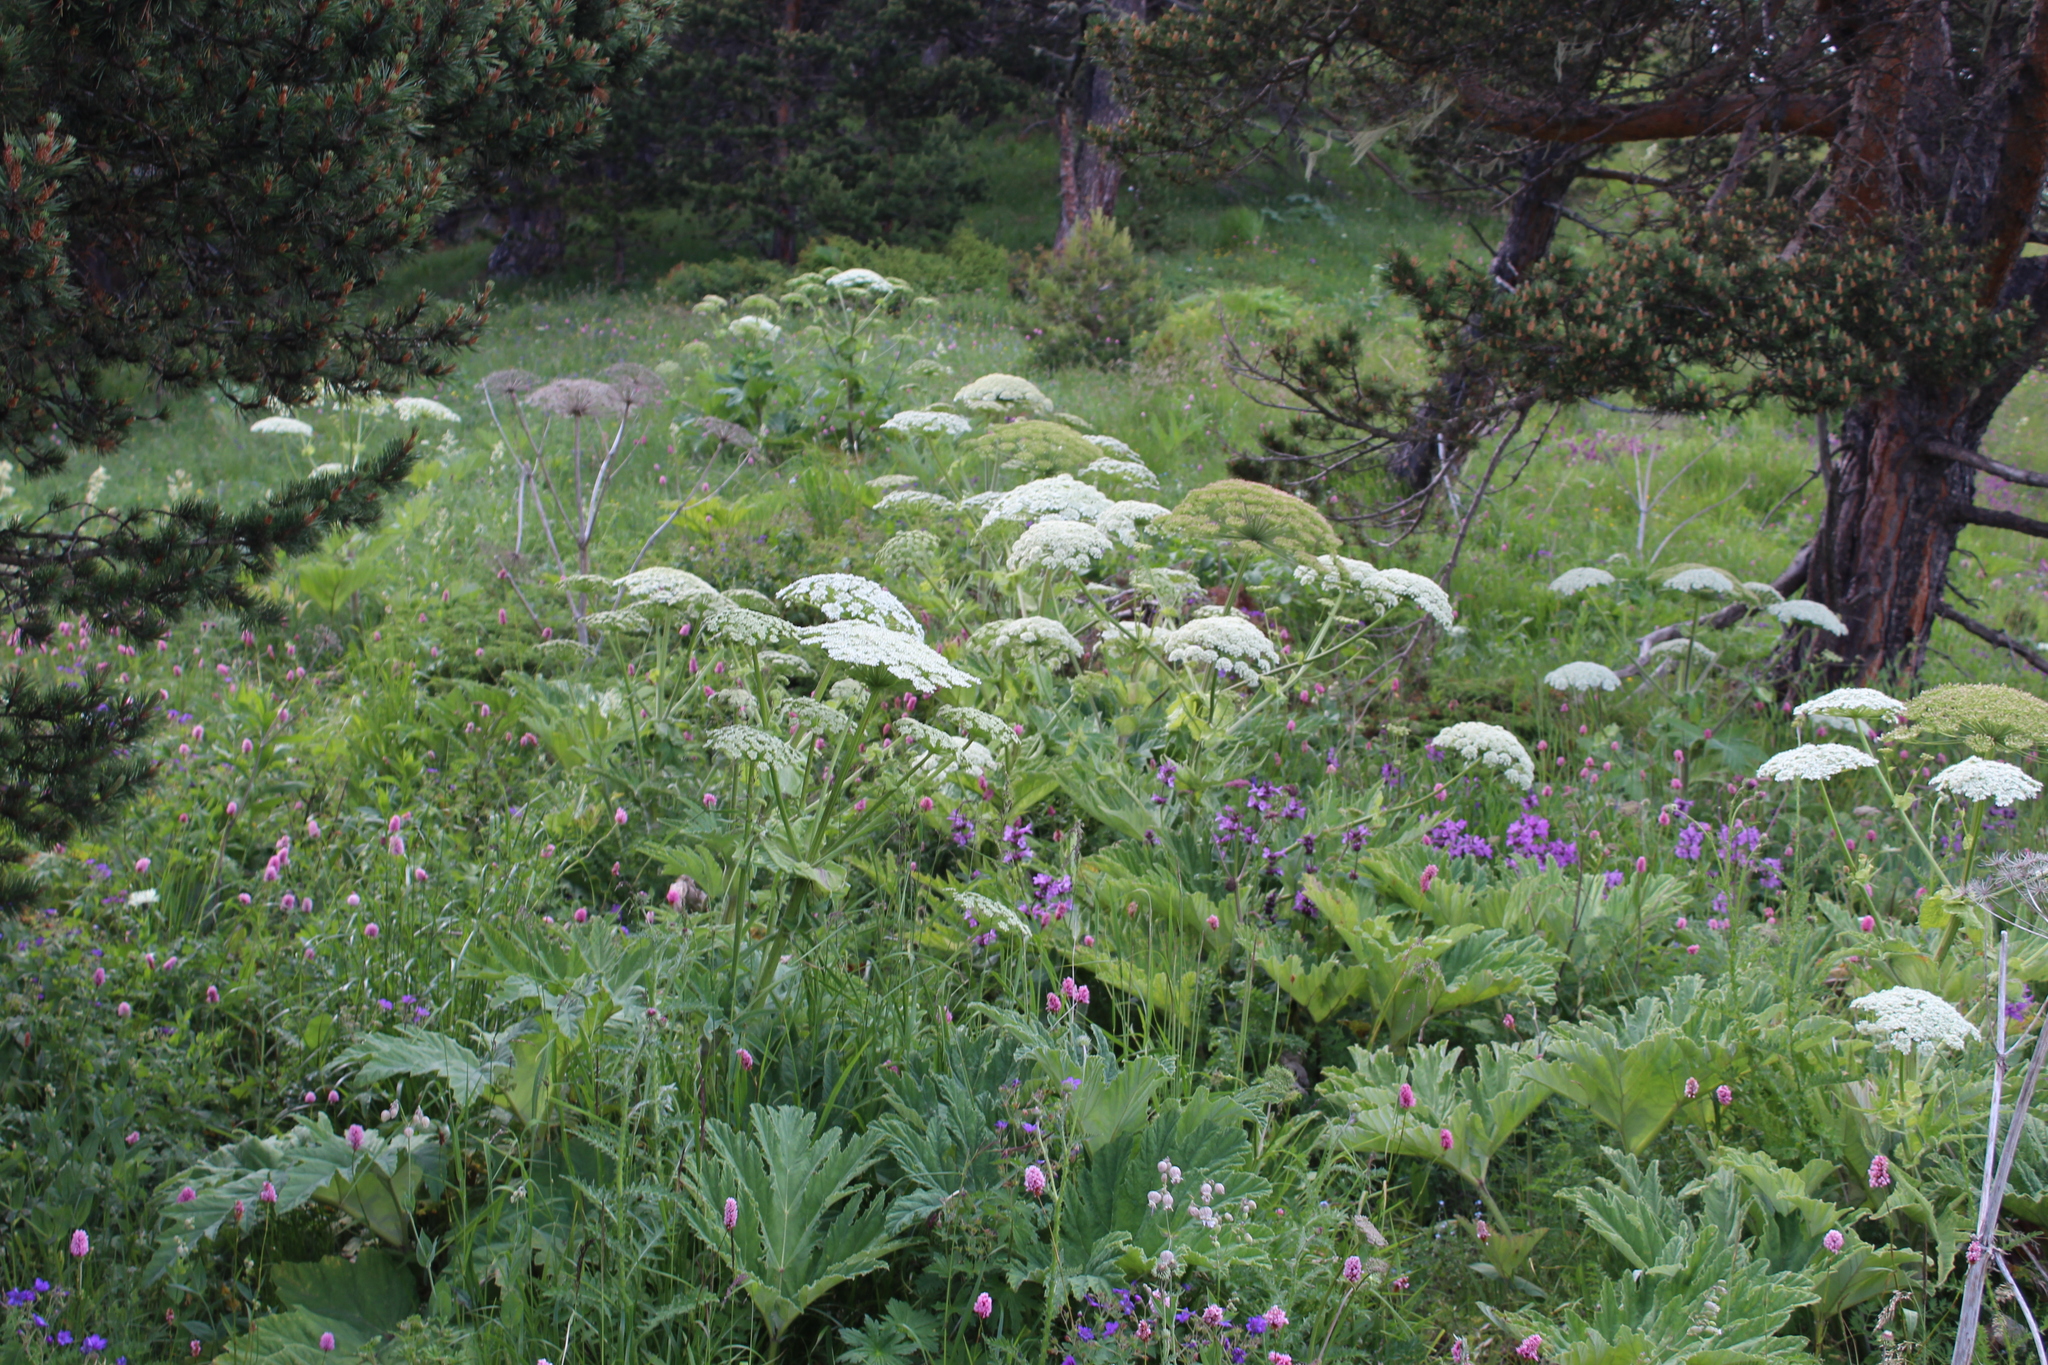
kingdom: Plantae
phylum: Tracheophyta
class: Magnoliopsida
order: Apiales
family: Apiaceae
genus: Heracleum
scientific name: Heracleum leskovii
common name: Leskov's cow-parsnip
